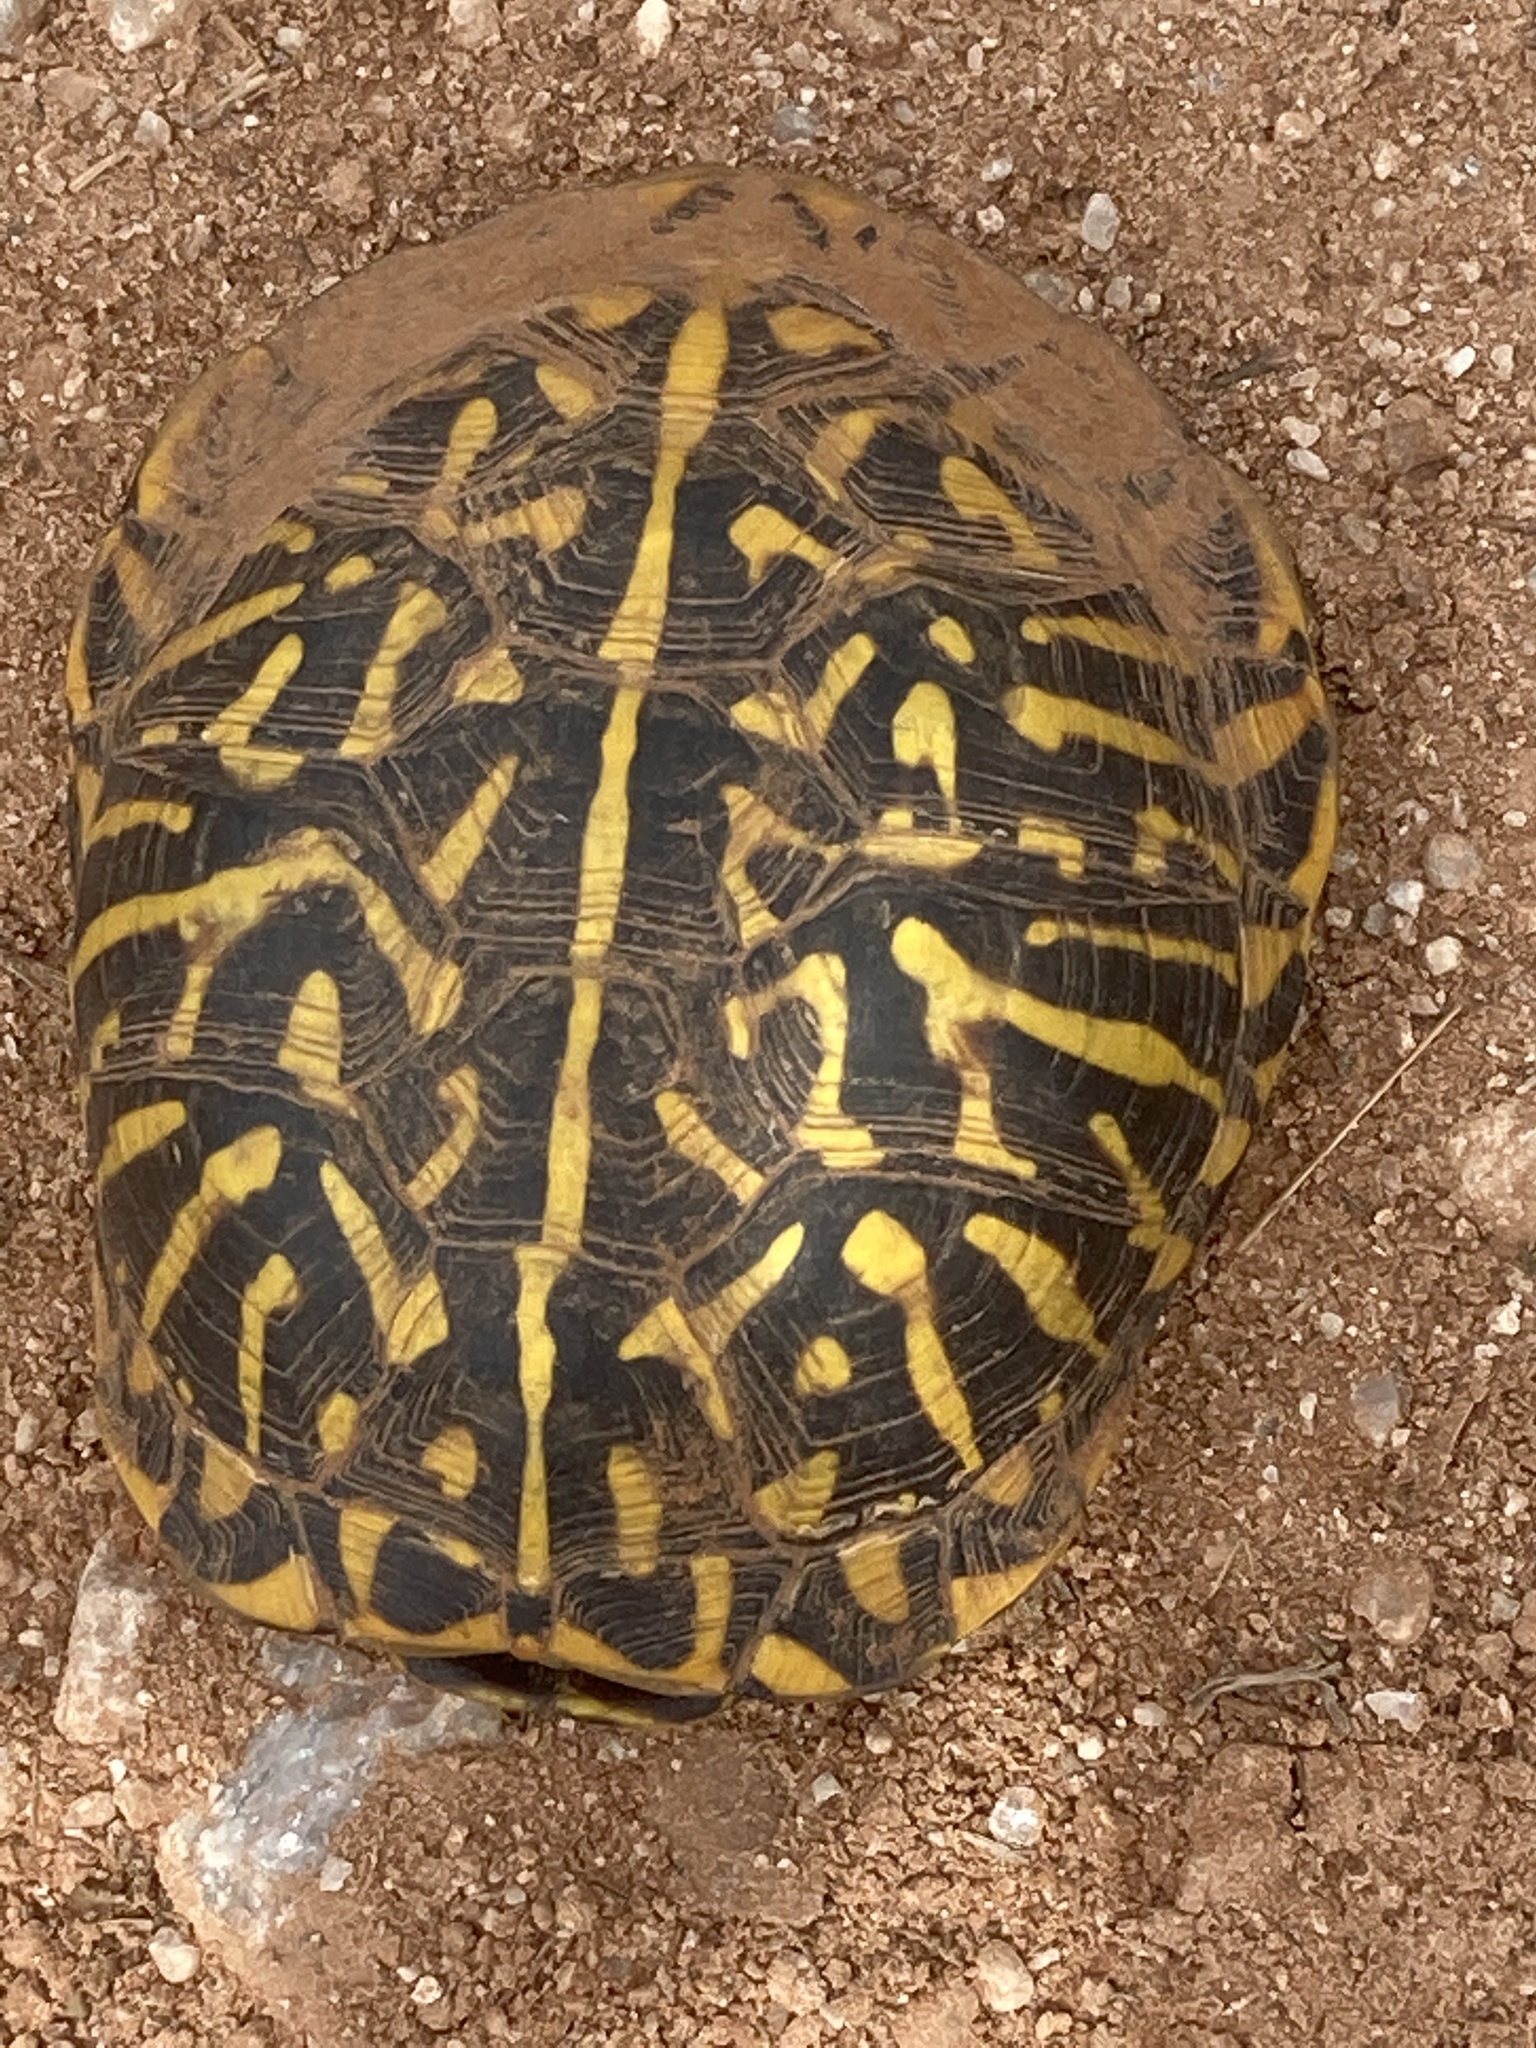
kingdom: Animalia
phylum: Chordata
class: Testudines
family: Emydidae
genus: Terrapene
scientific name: Terrapene ornata
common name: Western box turtle
